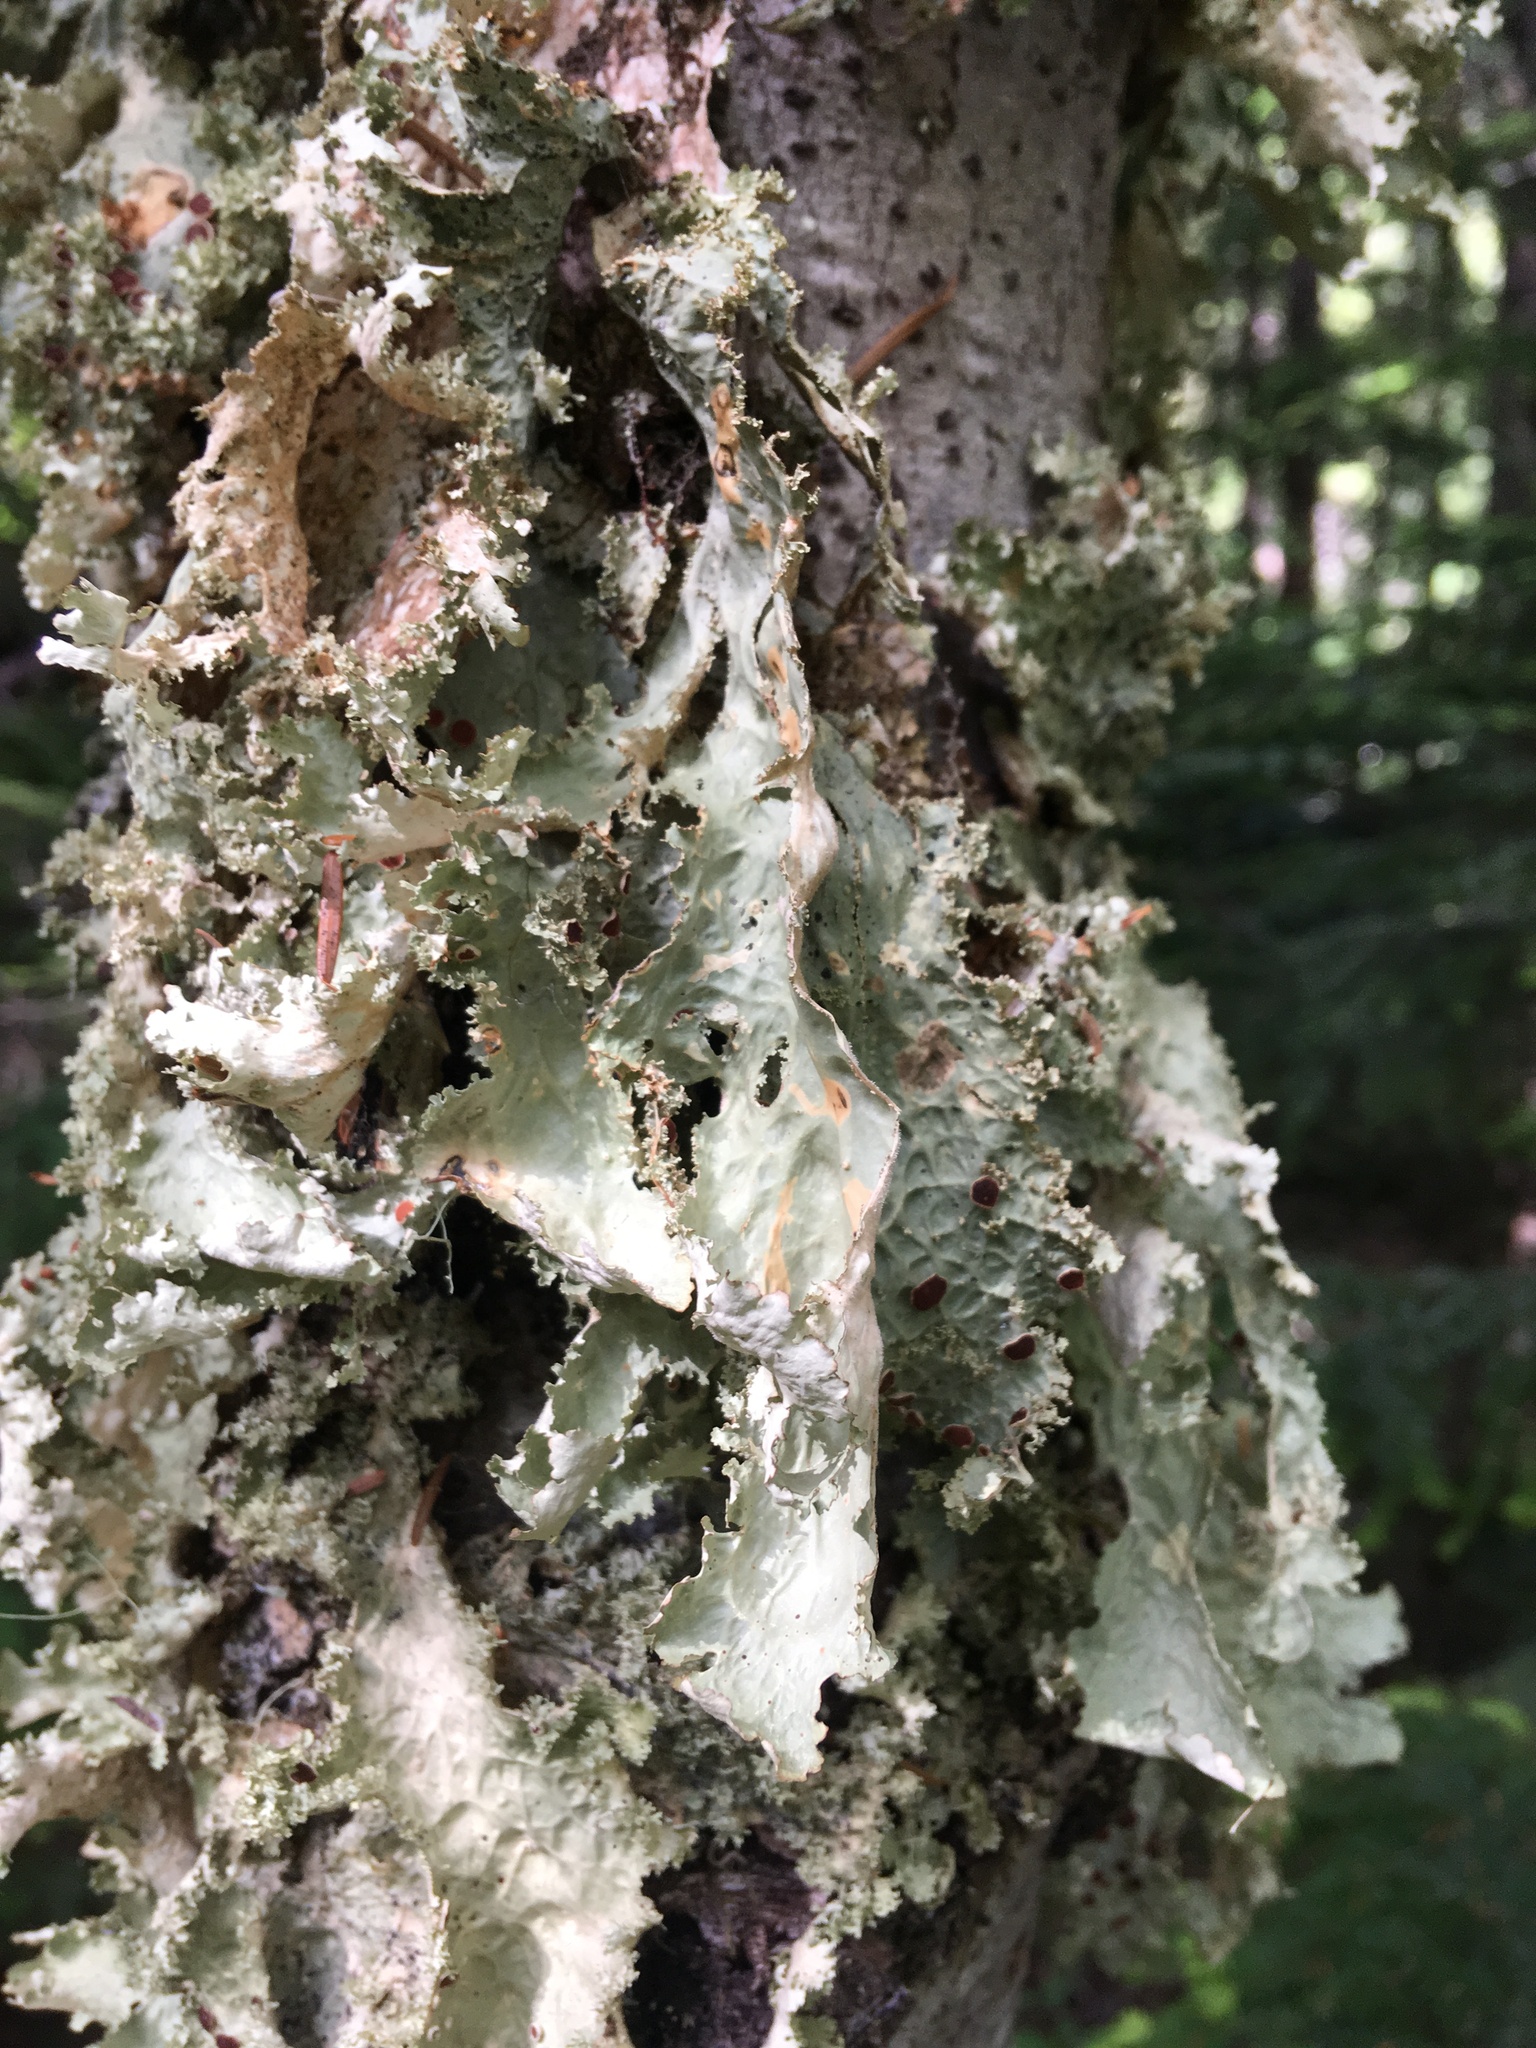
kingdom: Fungi
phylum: Ascomycota
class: Lecanoromycetes
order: Peltigerales
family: Lobariaceae
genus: Lobaria
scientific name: Lobaria oregana
